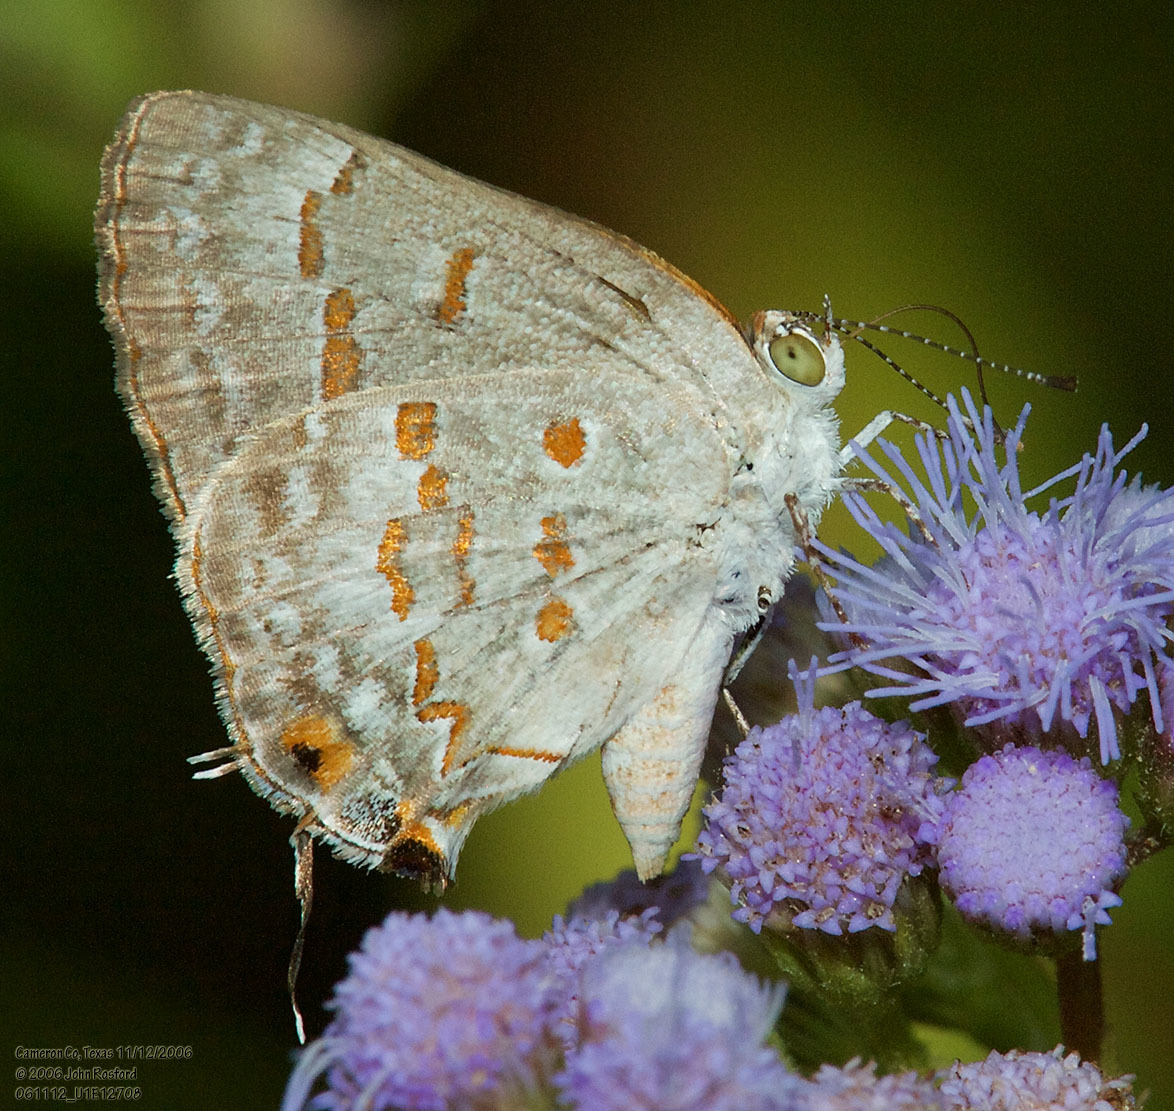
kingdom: Animalia
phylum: Arthropoda
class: Insecta
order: Lepidoptera
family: Lycaenidae
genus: Ministrymon
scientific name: Ministrymon clytie
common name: Clytie ministreak
